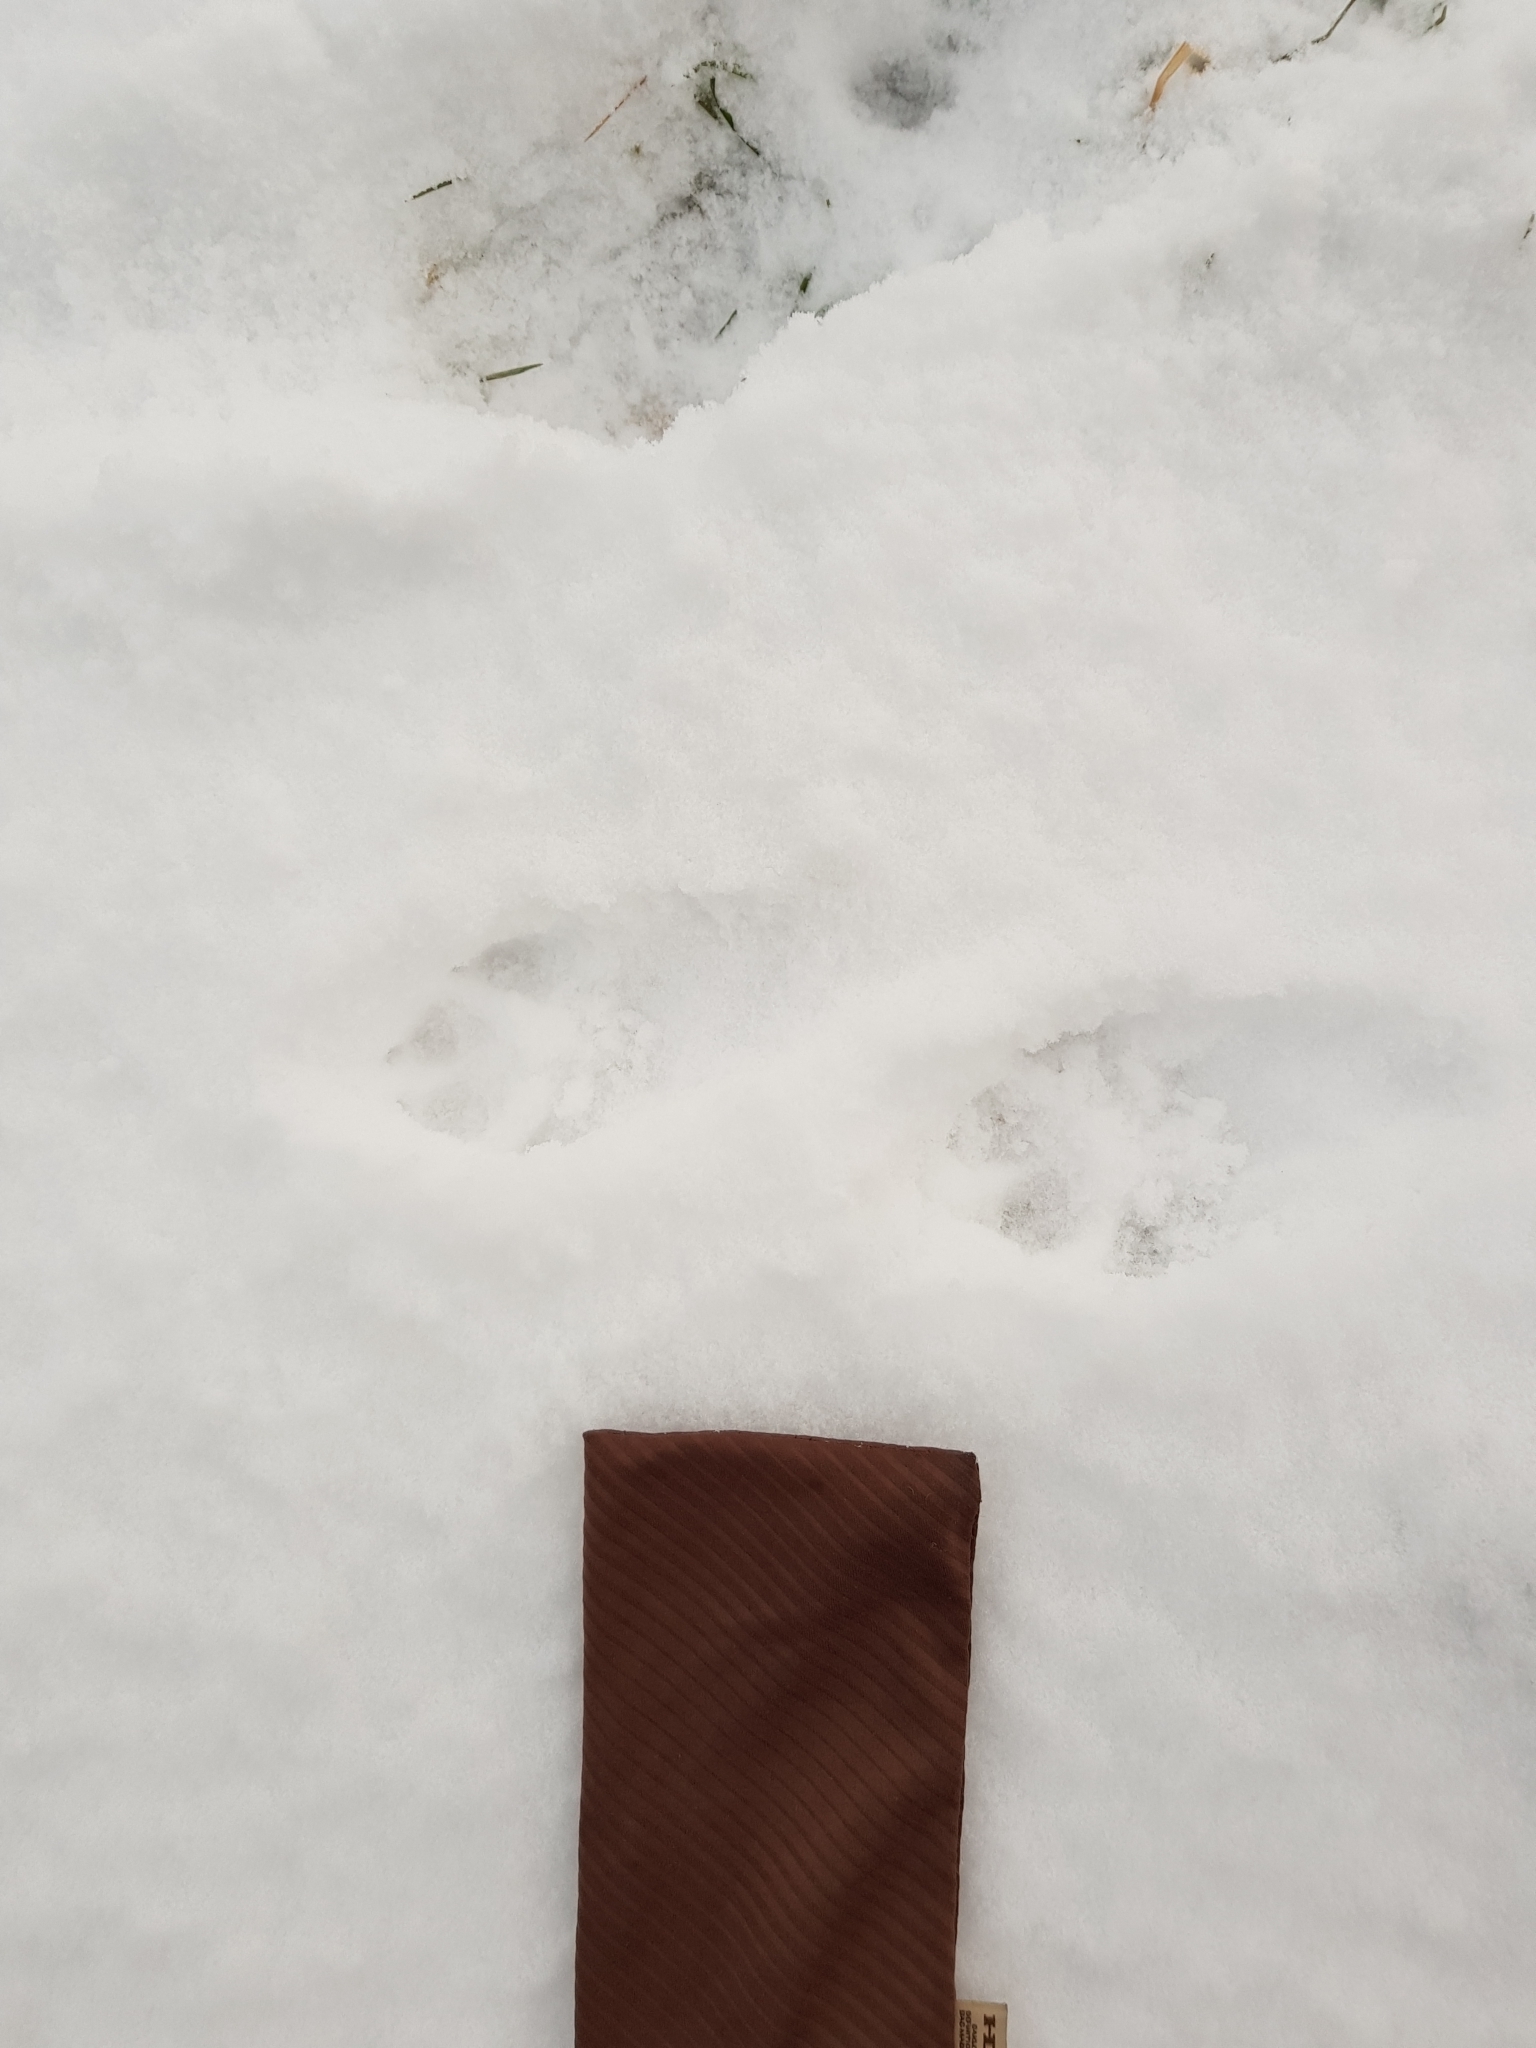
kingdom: Animalia
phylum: Chordata
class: Mammalia
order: Carnivora
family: Canidae
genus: Vulpes
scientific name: Vulpes vulpes
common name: Red fox
